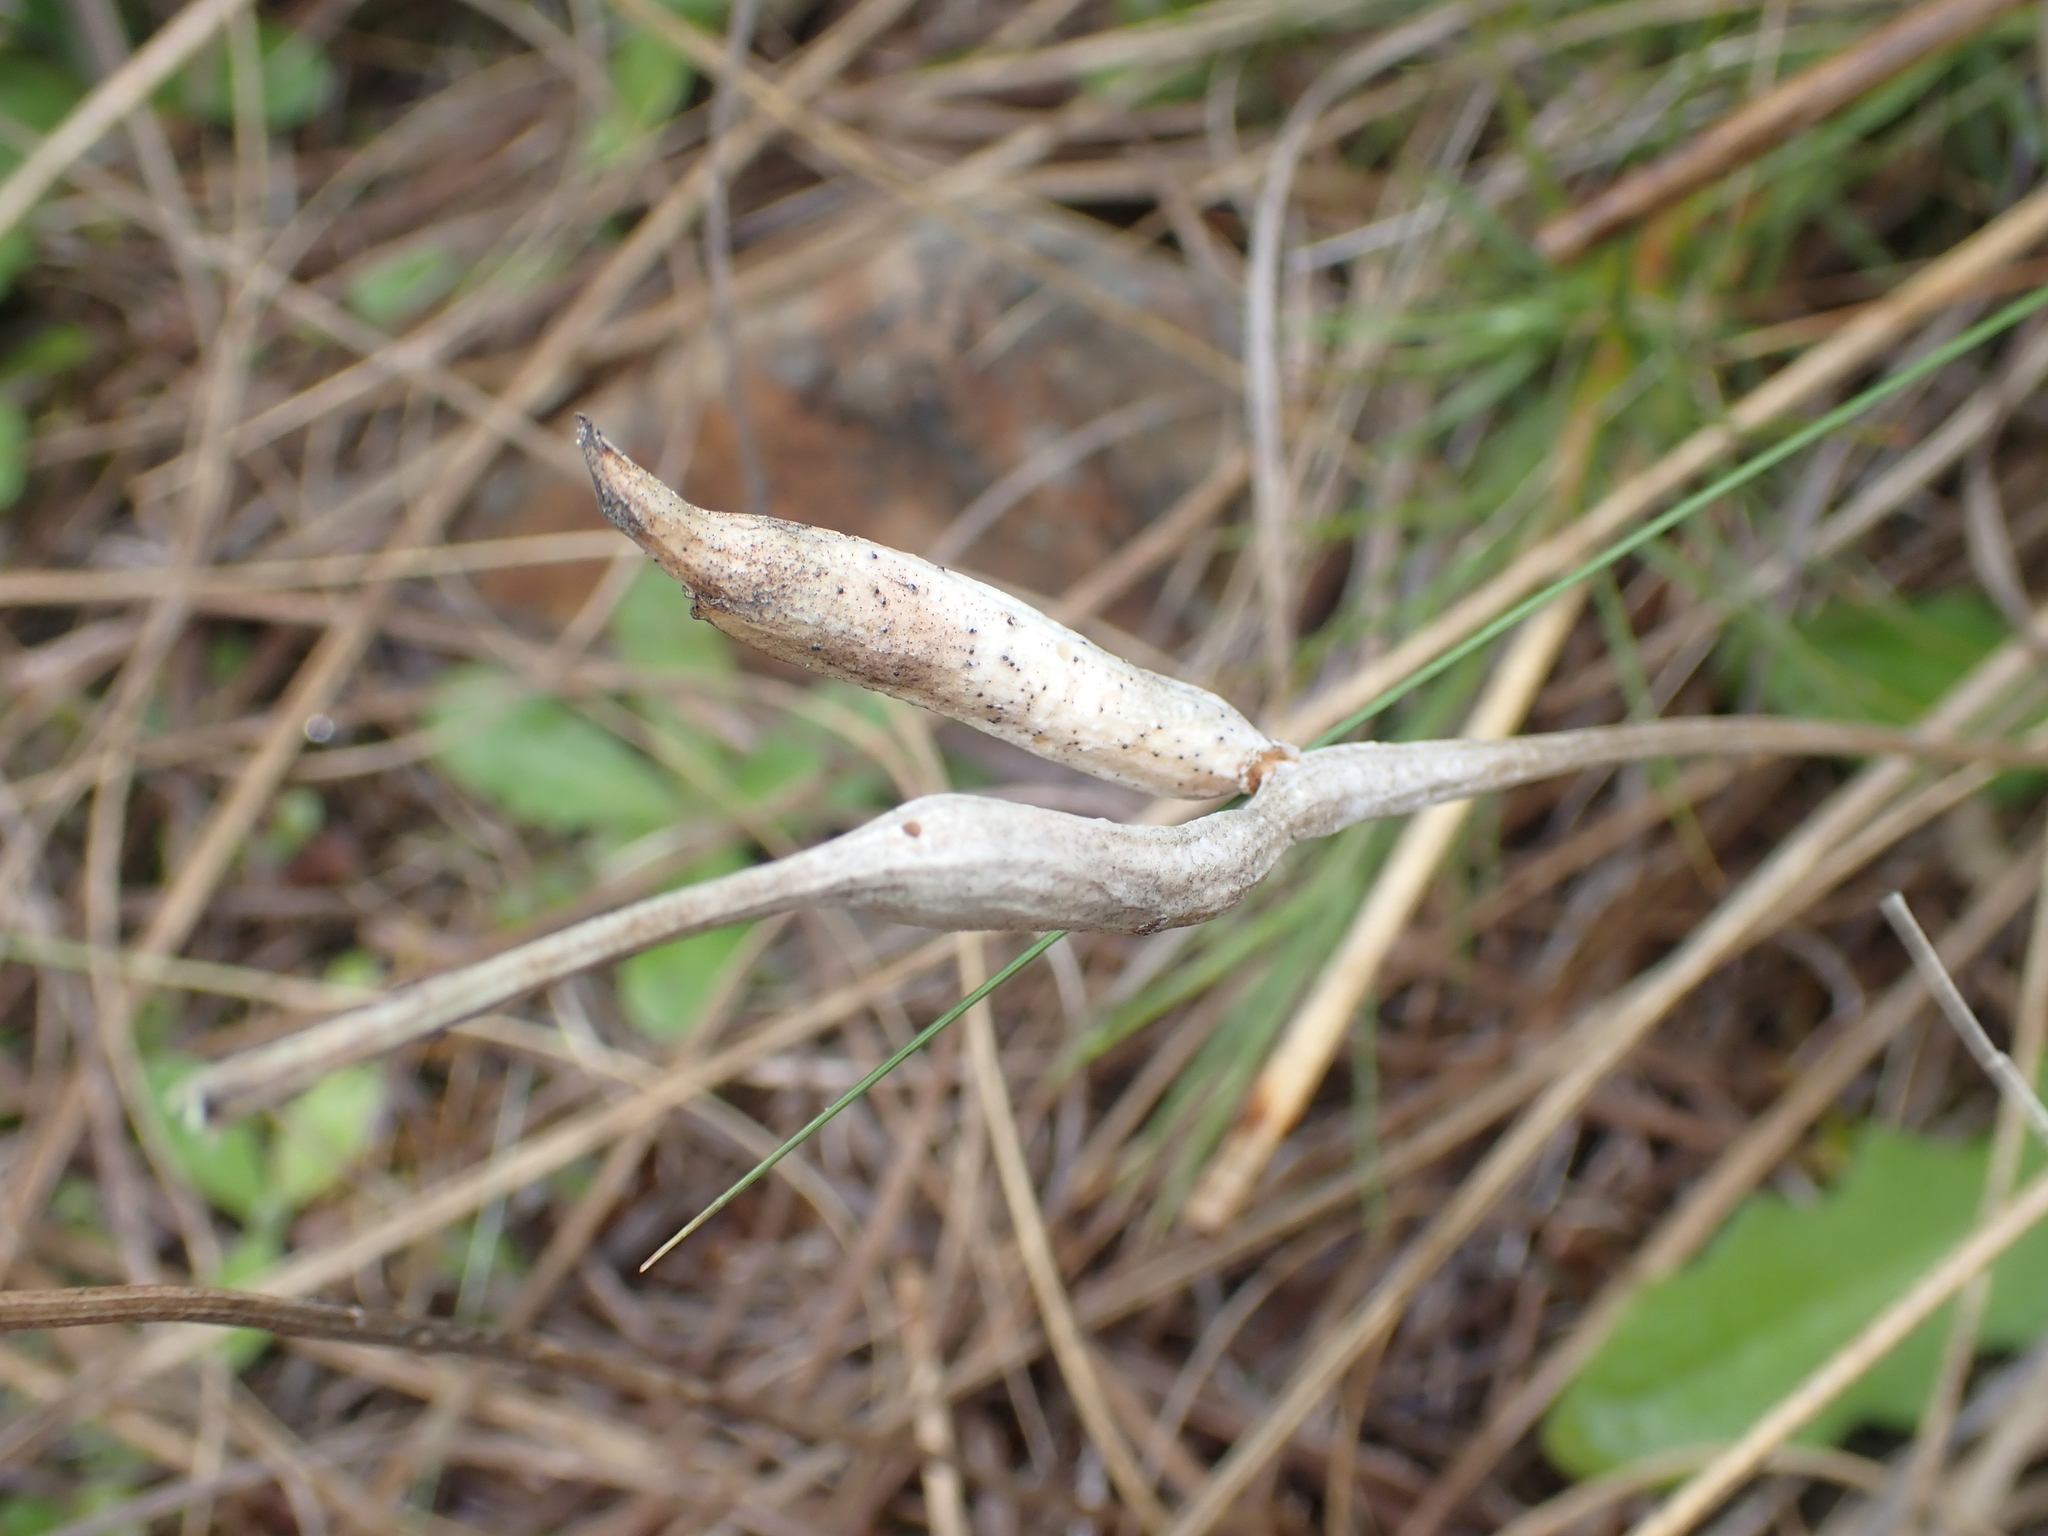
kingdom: Animalia
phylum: Arthropoda
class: Insecta
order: Hymenoptera
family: Cynipidae
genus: Phanacis
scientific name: Phanacis hypochoeridis
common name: Gall wasp
